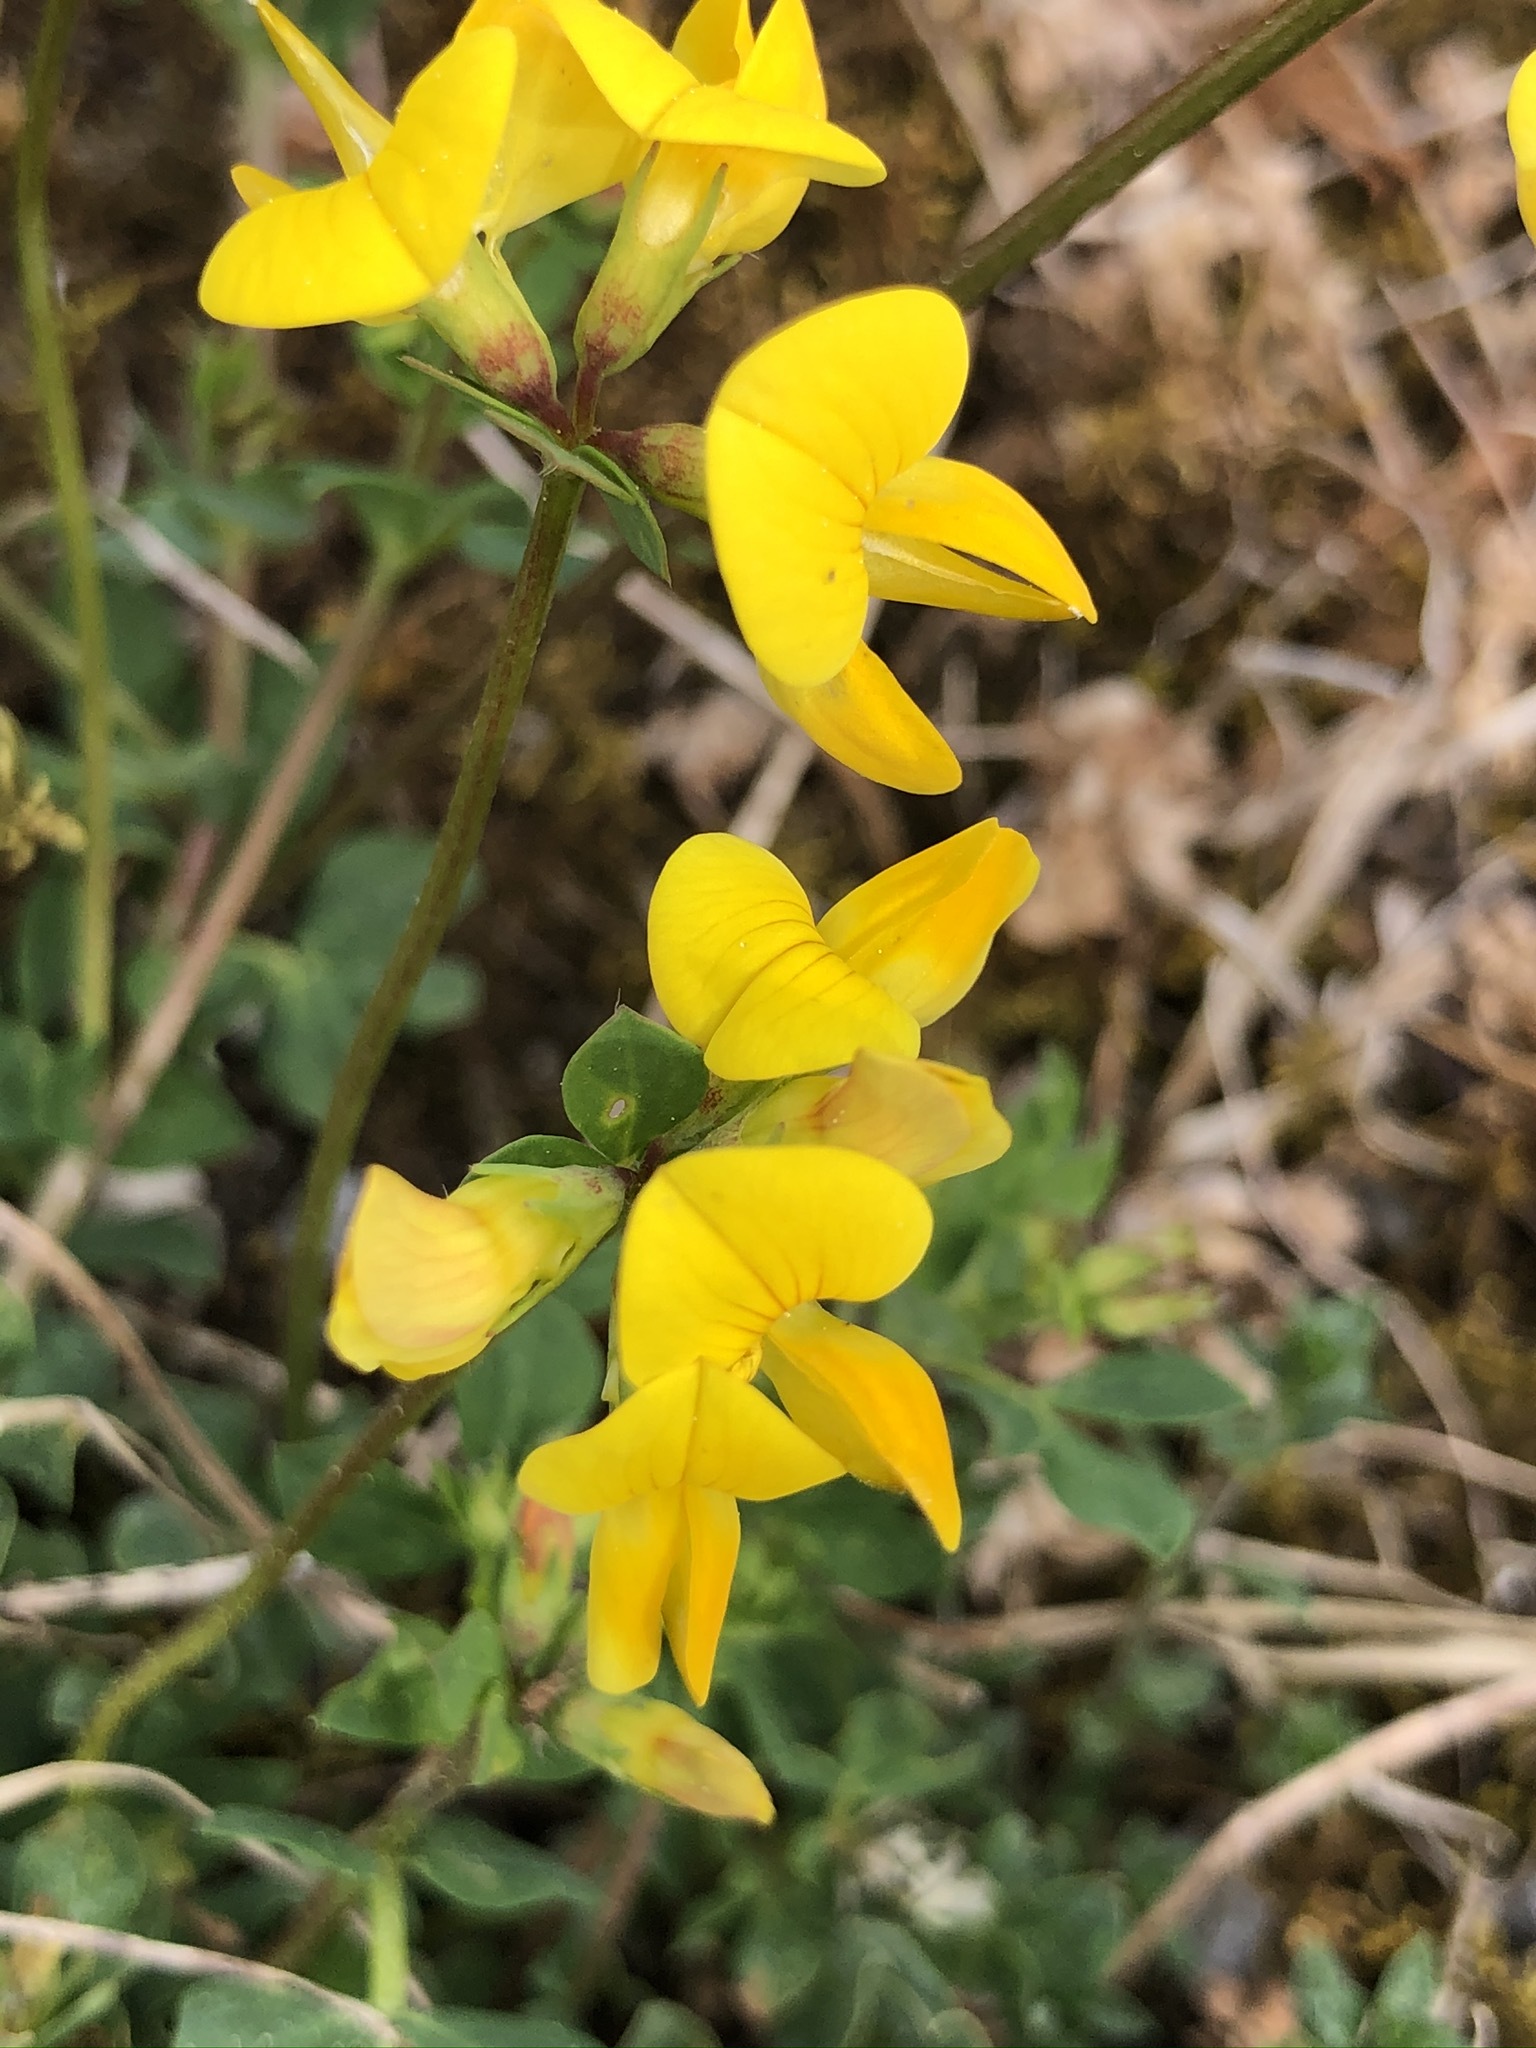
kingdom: Plantae
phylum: Tracheophyta
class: Magnoliopsida
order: Fabales
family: Fabaceae
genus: Lotus
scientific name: Lotus corniculatus
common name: Common bird's-foot-trefoil
